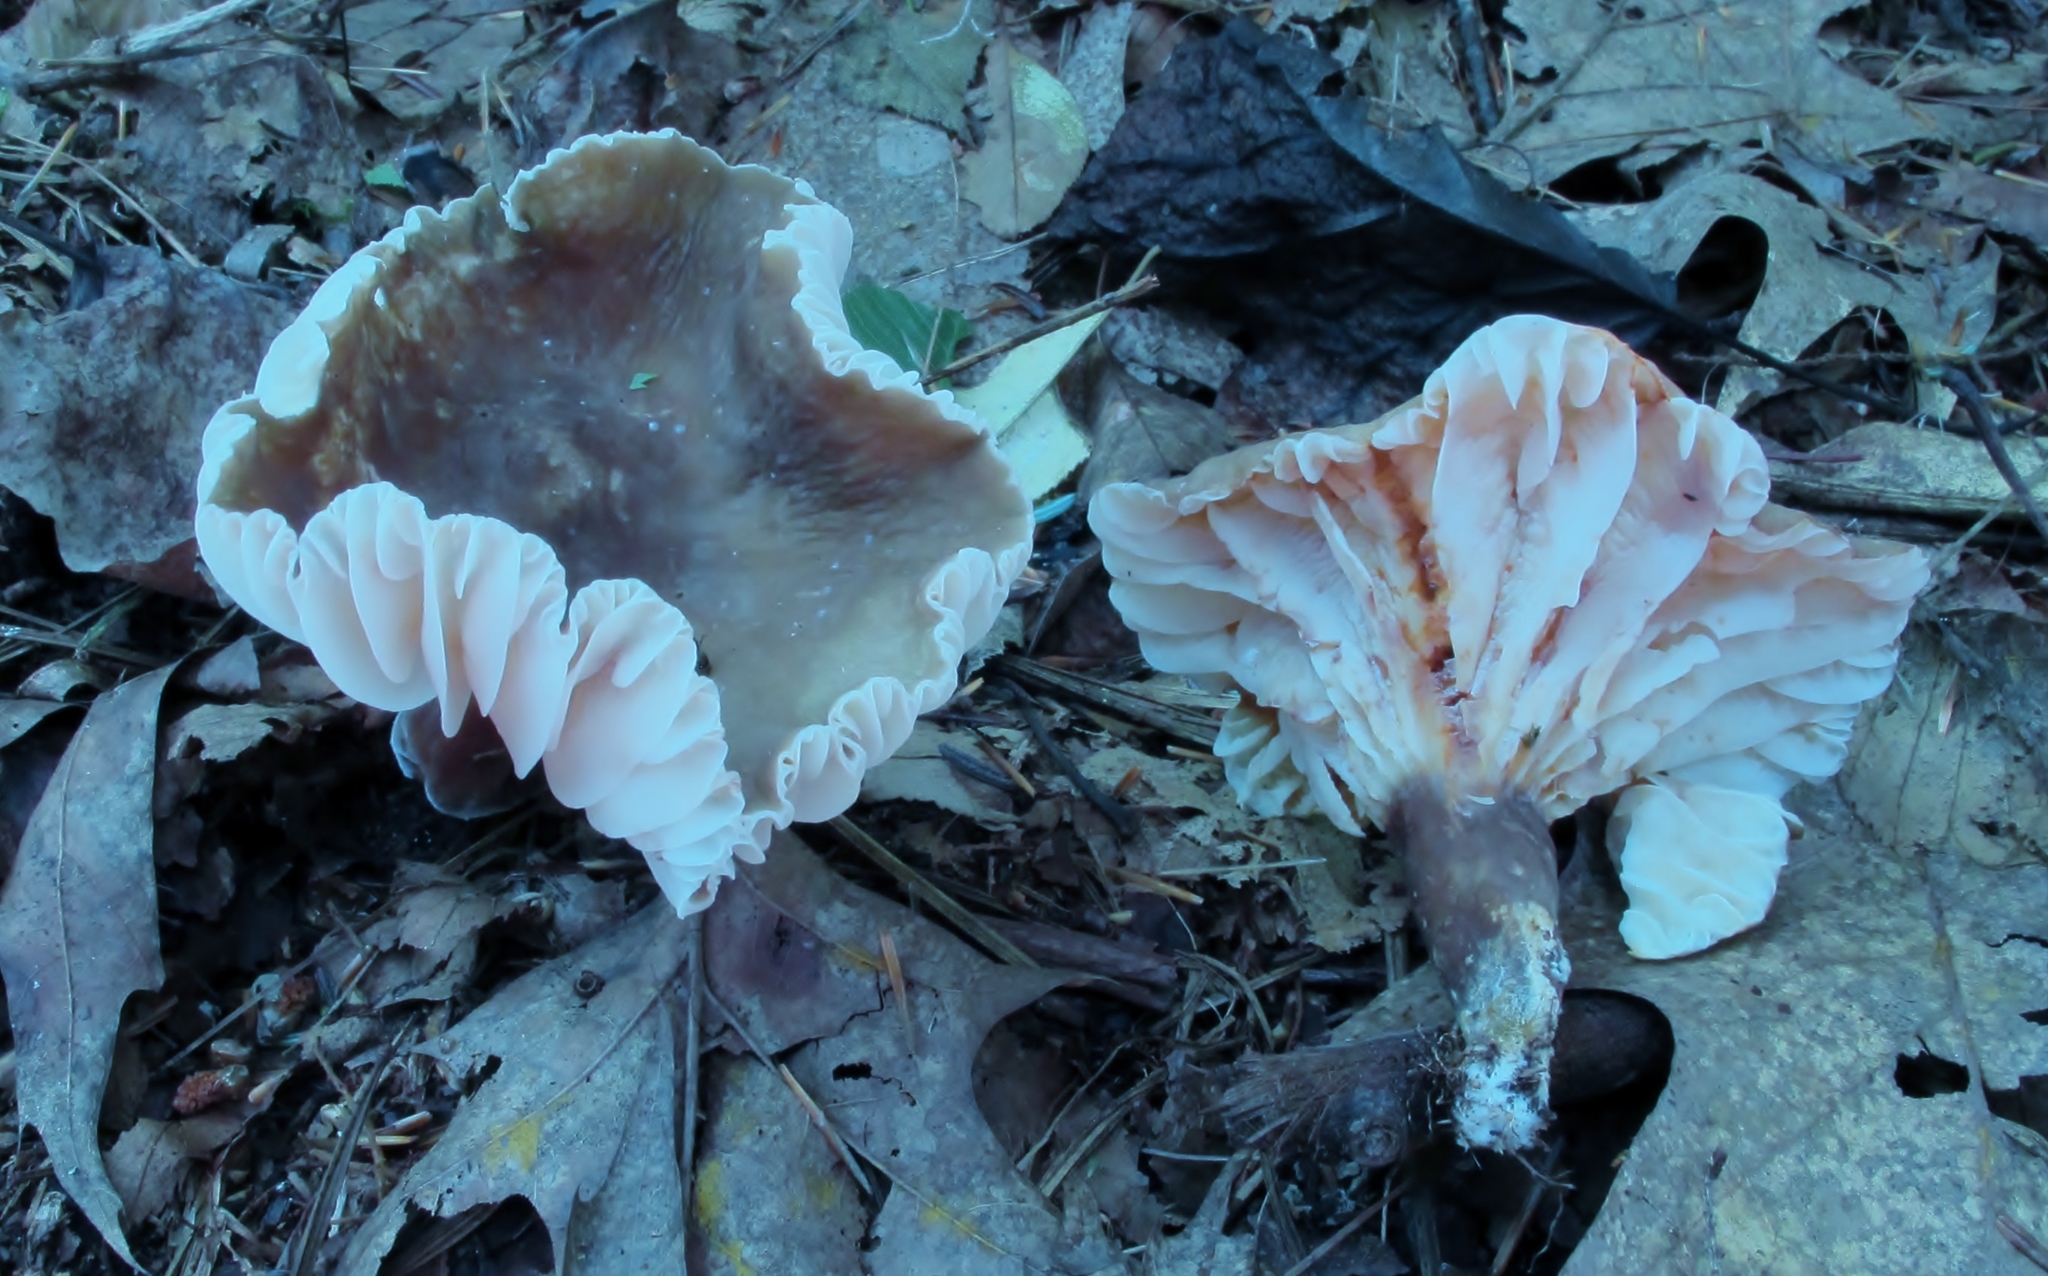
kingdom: Fungi
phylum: Basidiomycota
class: Agaricomycetes
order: Russulales
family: Russulaceae
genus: Lactarius
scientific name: Lactarius gerardii
